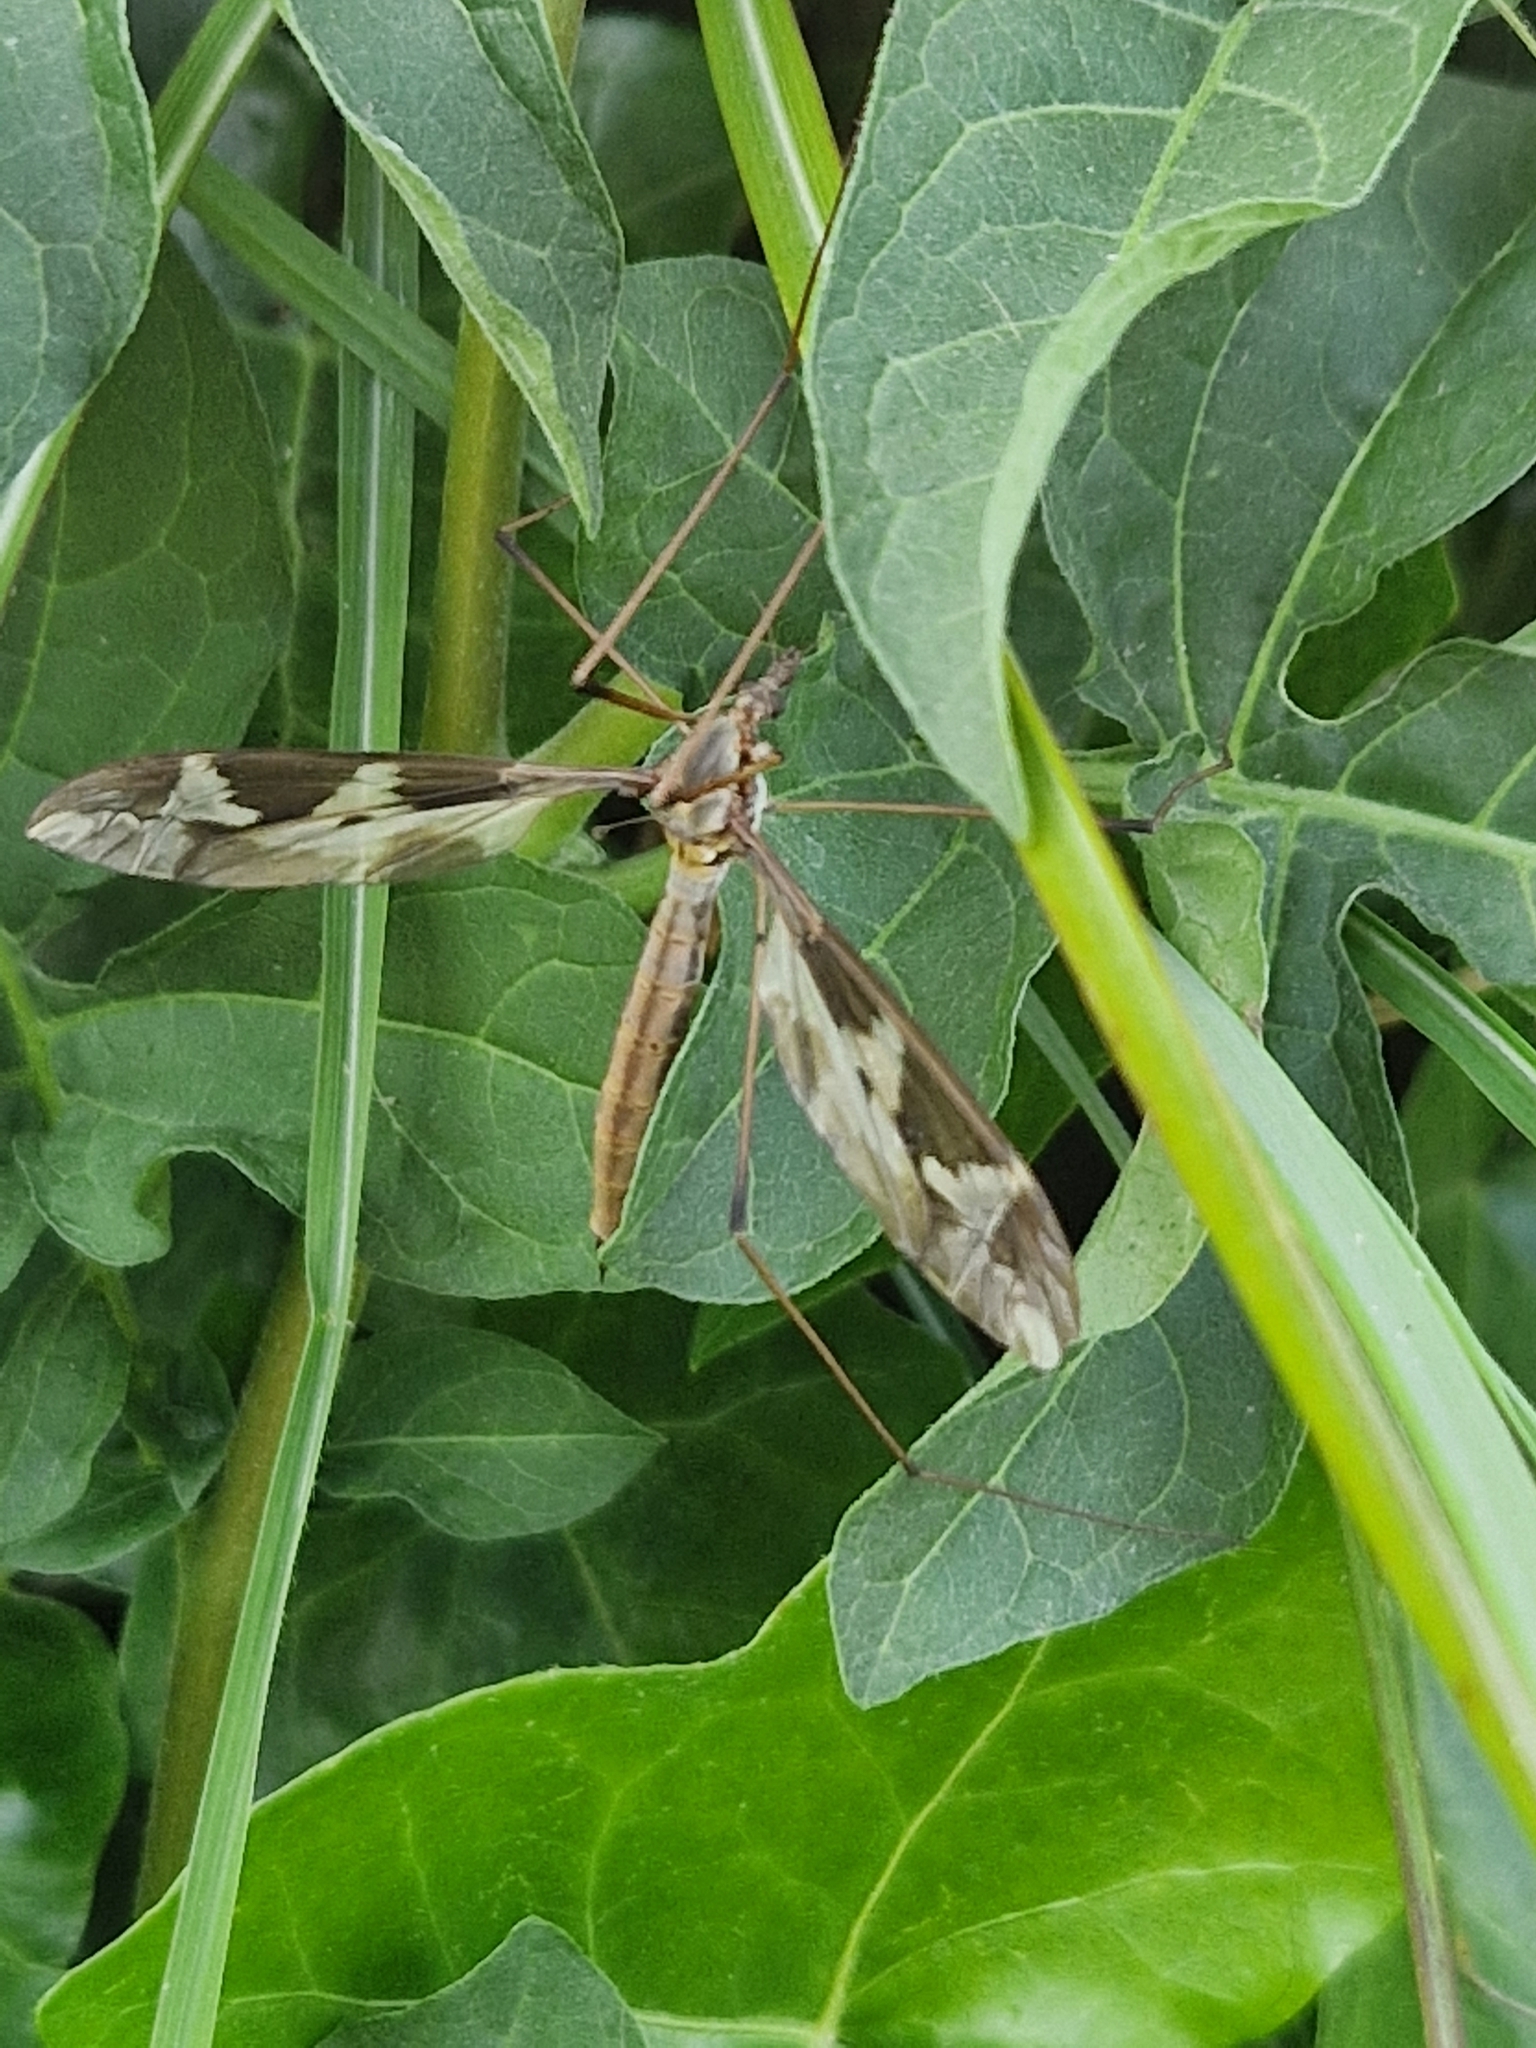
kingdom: Animalia
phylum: Arthropoda
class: Insecta
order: Diptera
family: Tipulidae
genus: Tipula
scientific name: Tipula maxima
